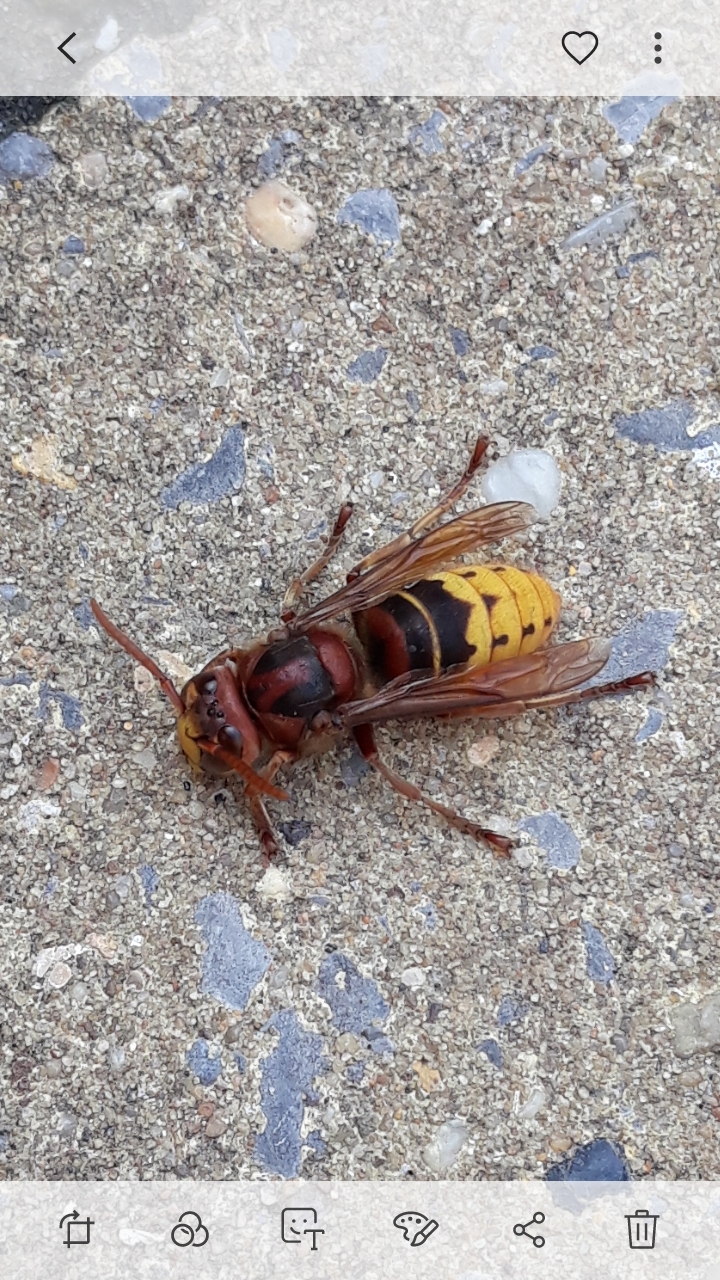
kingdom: Animalia
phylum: Arthropoda
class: Insecta
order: Hymenoptera
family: Vespidae
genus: Vespa
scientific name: Vespa crabro
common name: Hornet
